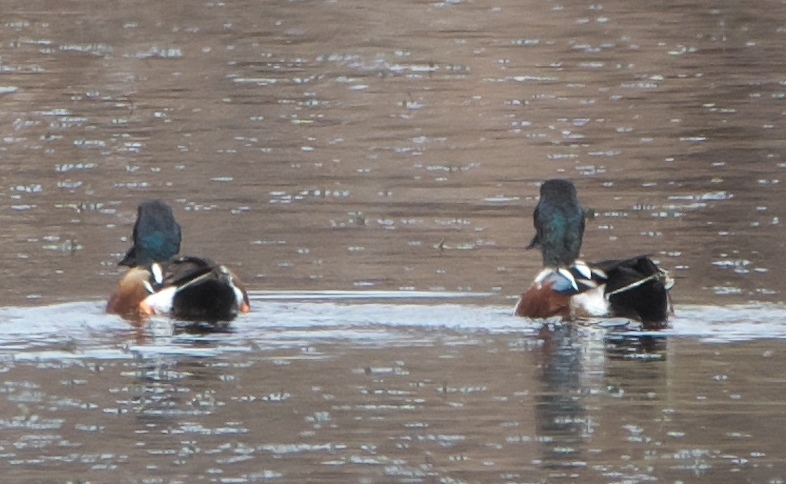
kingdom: Animalia
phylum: Chordata
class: Aves
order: Anseriformes
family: Anatidae
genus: Spatula
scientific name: Spatula clypeata
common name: Northern shoveler
